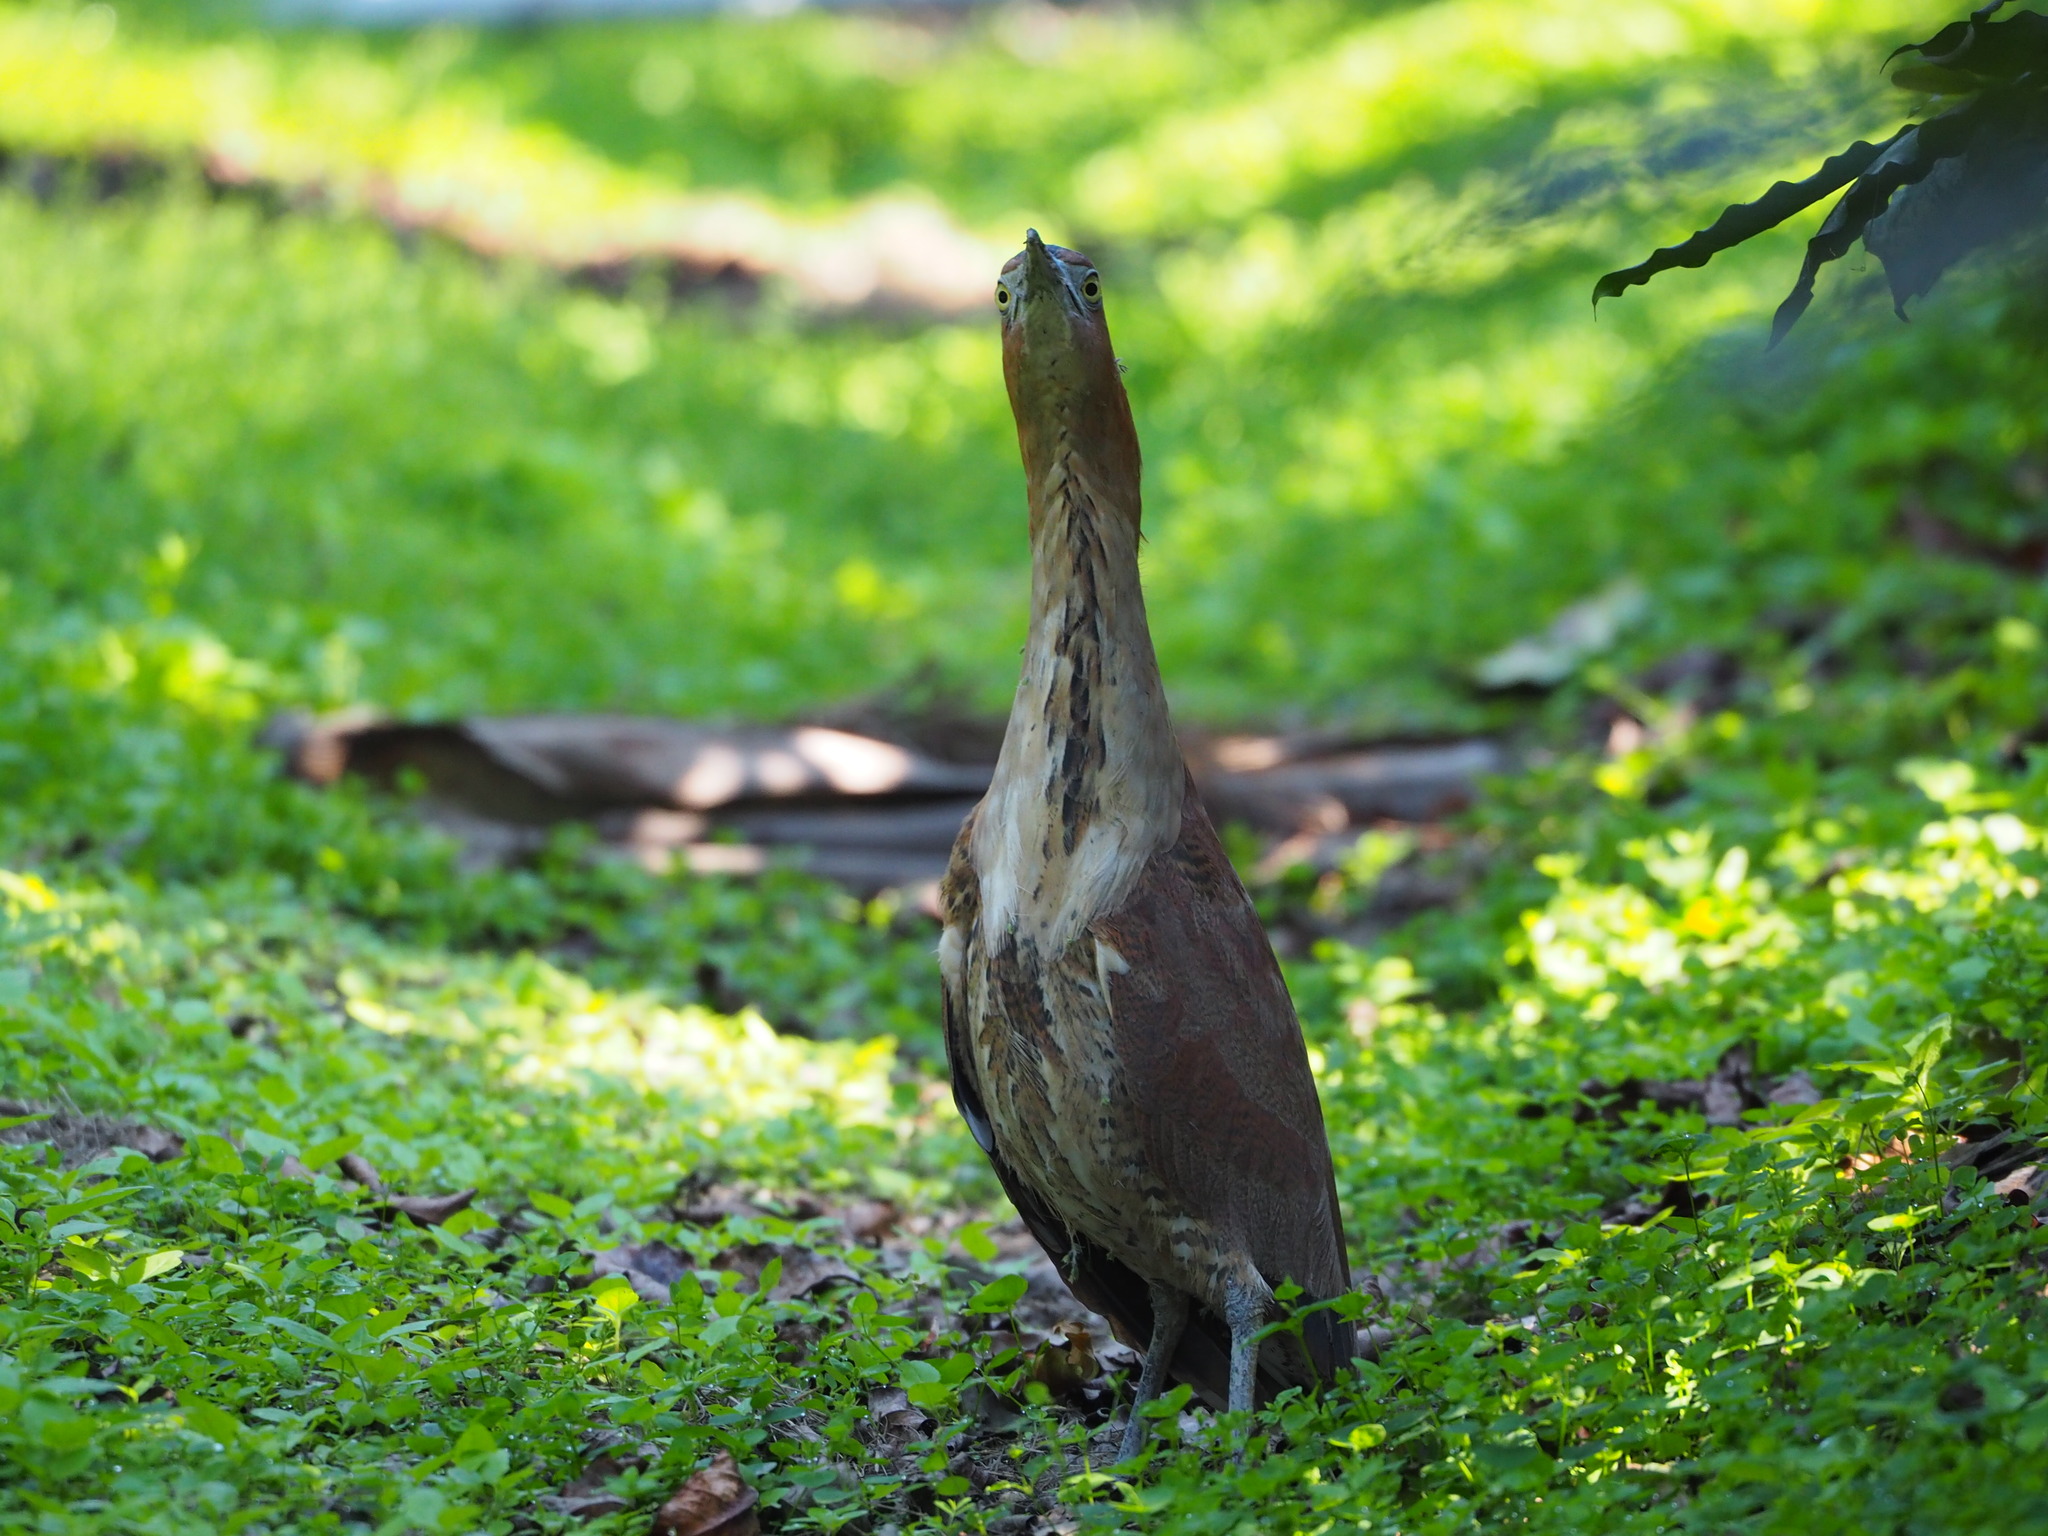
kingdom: Animalia
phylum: Chordata
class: Aves
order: Pelecaniformes
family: Ardeidae
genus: Gorsachius
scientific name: Gorsachius melanolophus
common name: Malayan night heron
